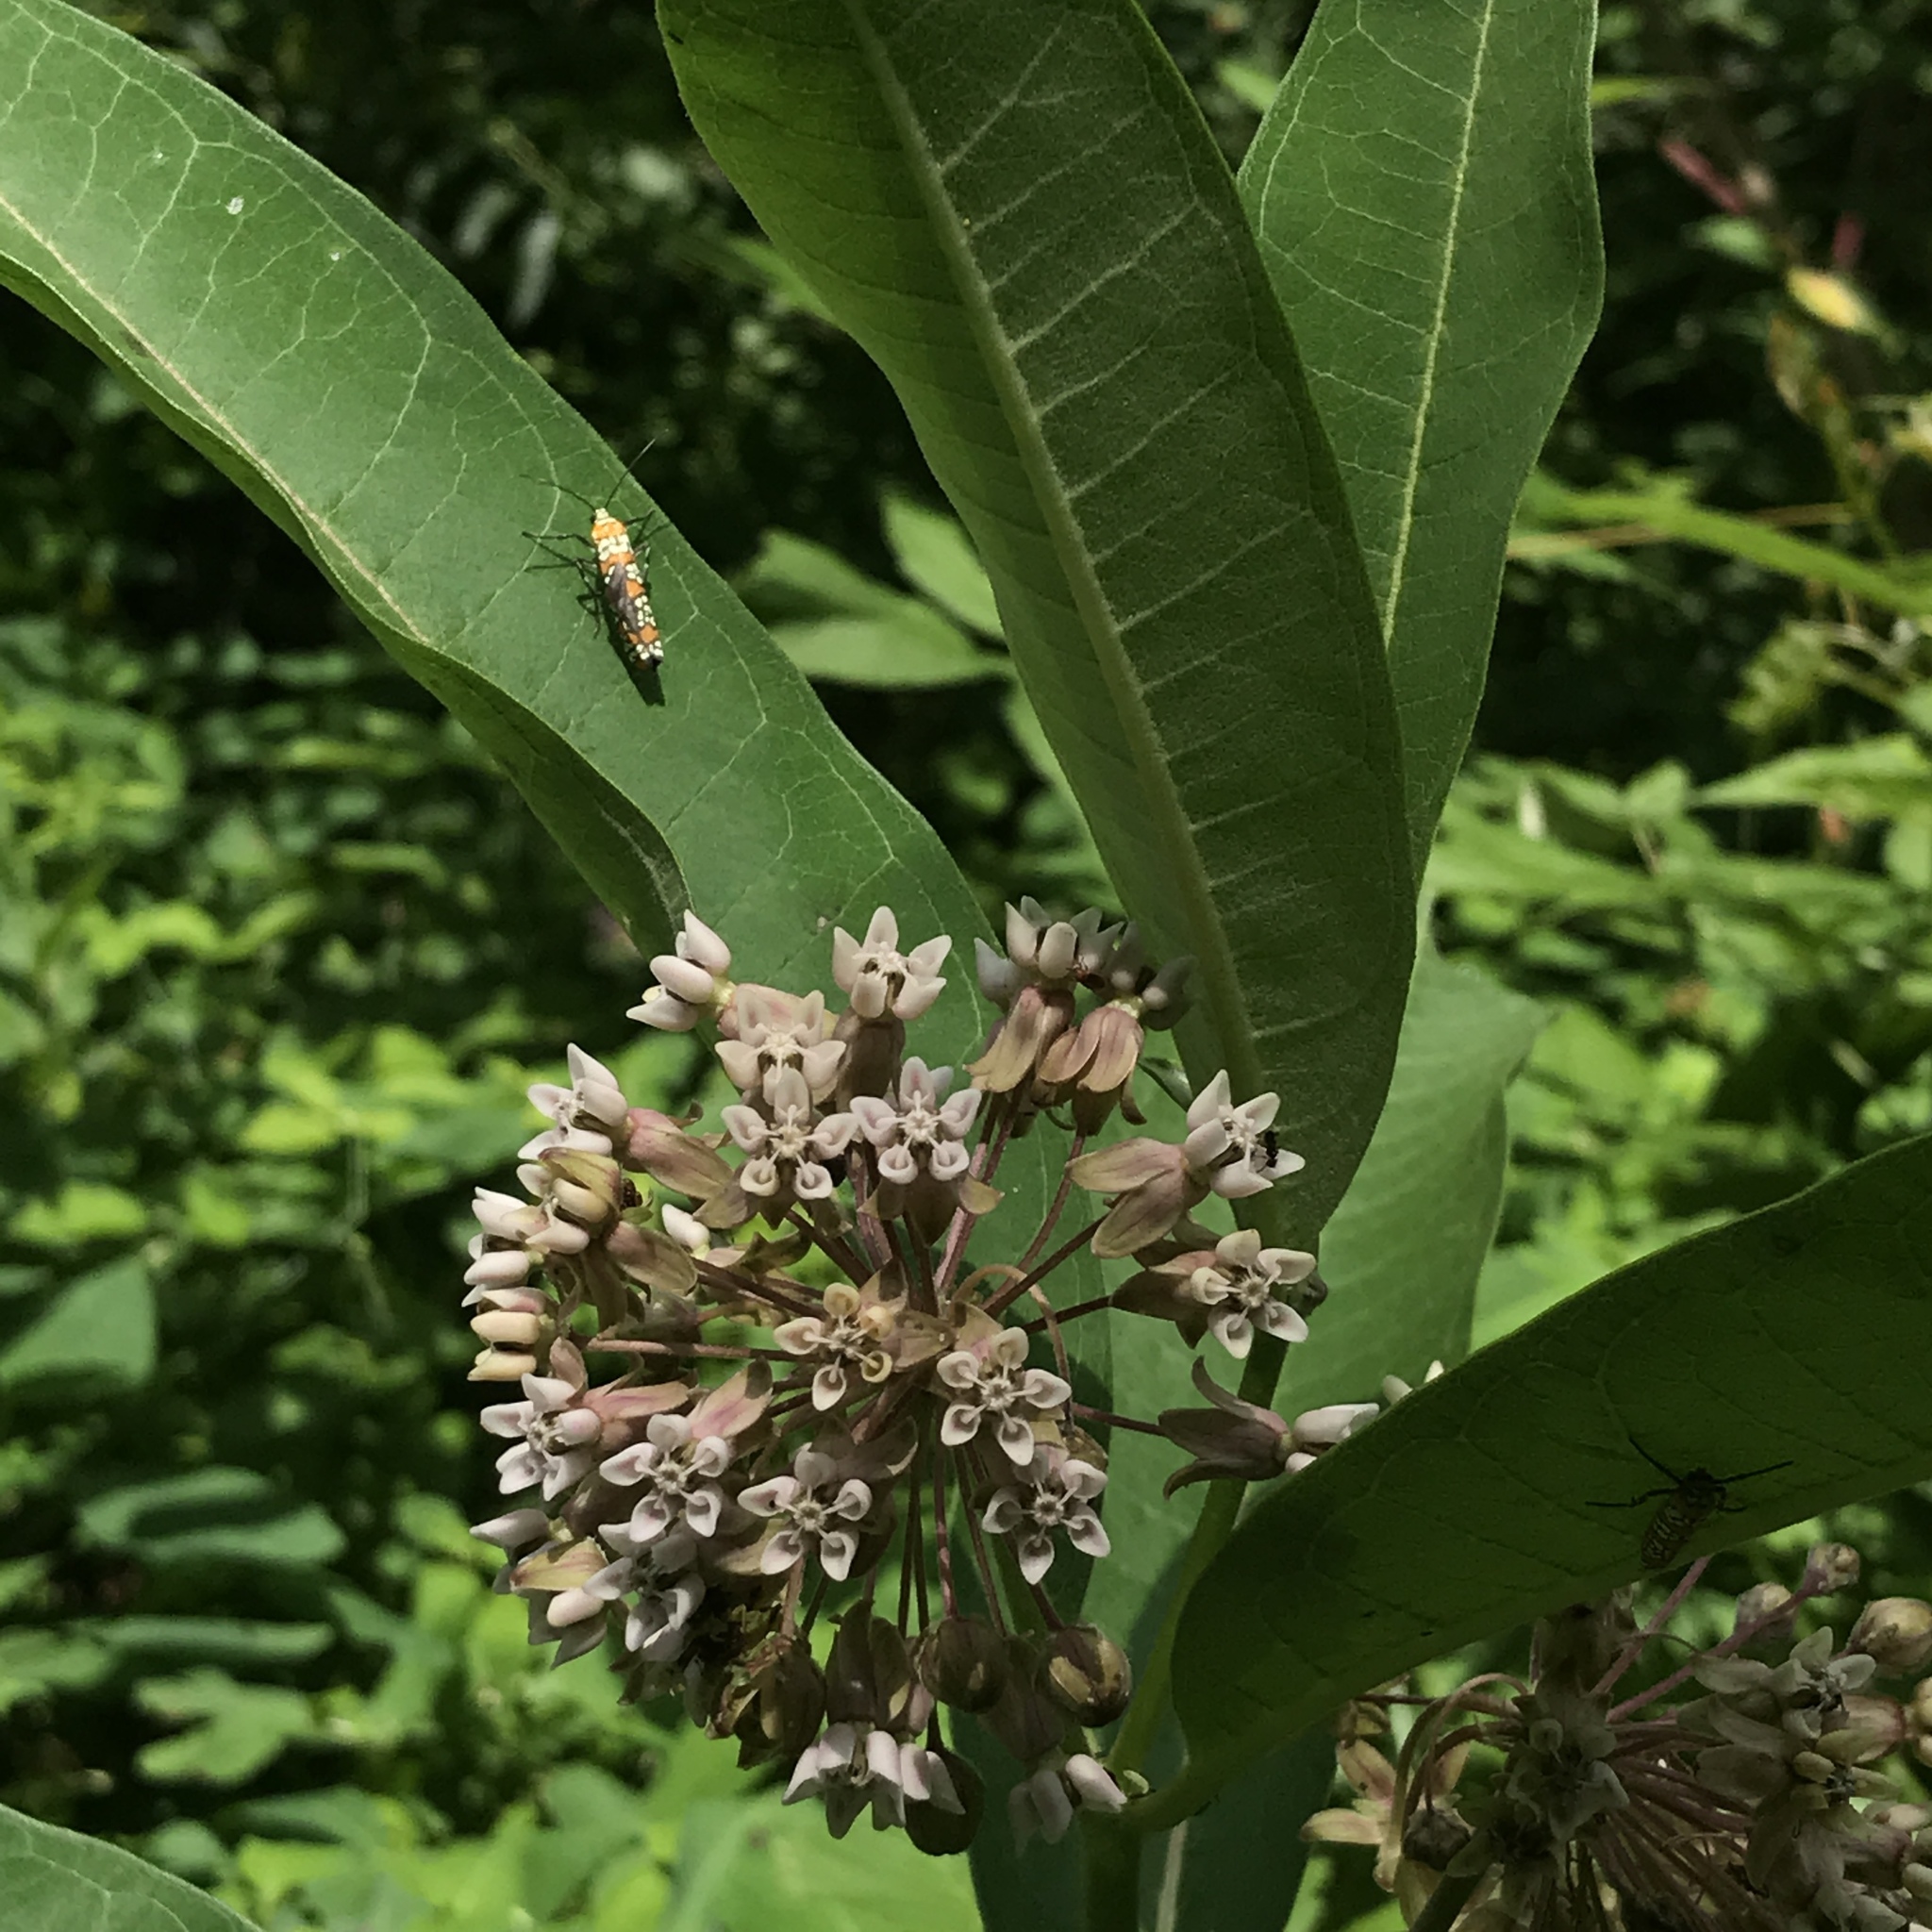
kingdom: Animalia
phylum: Arthropoda
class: Insecta
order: Lepidoptera
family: Attevidae
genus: Atteva
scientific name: Atteva punctella
